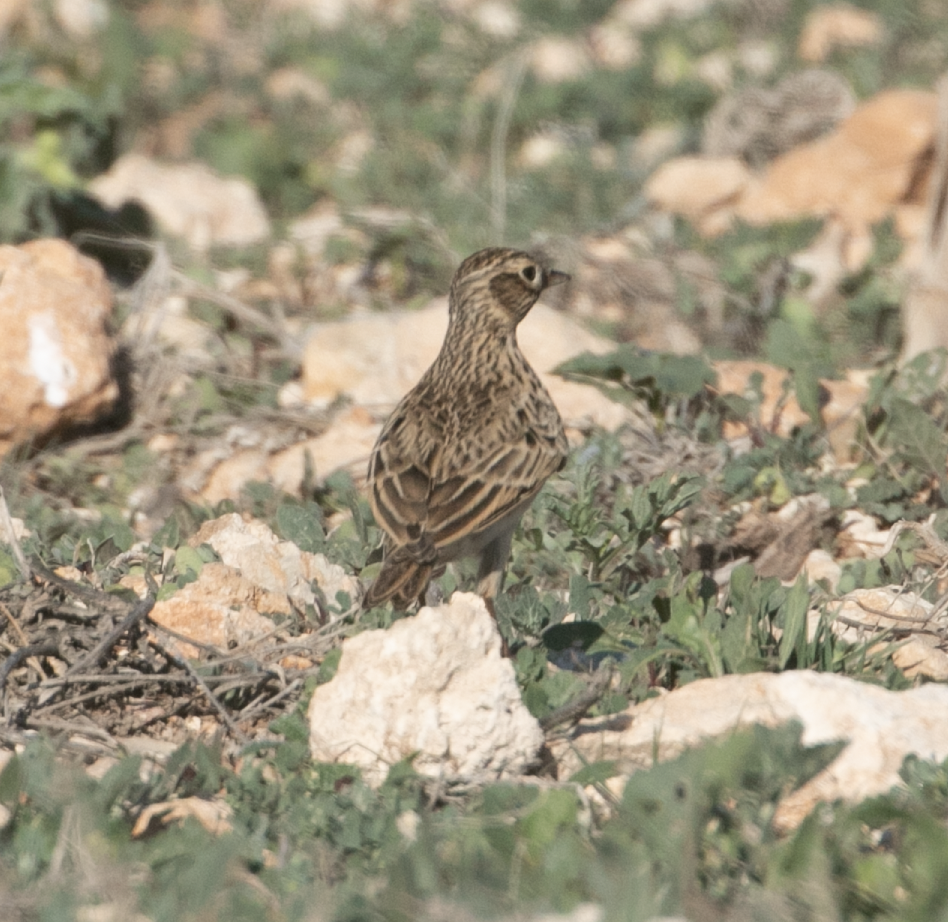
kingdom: Animalia
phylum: Chordata
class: Aves
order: Passeriformes
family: Alaudidae
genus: Alauda
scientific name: Alauda arvensis
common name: Eurasian skylark
